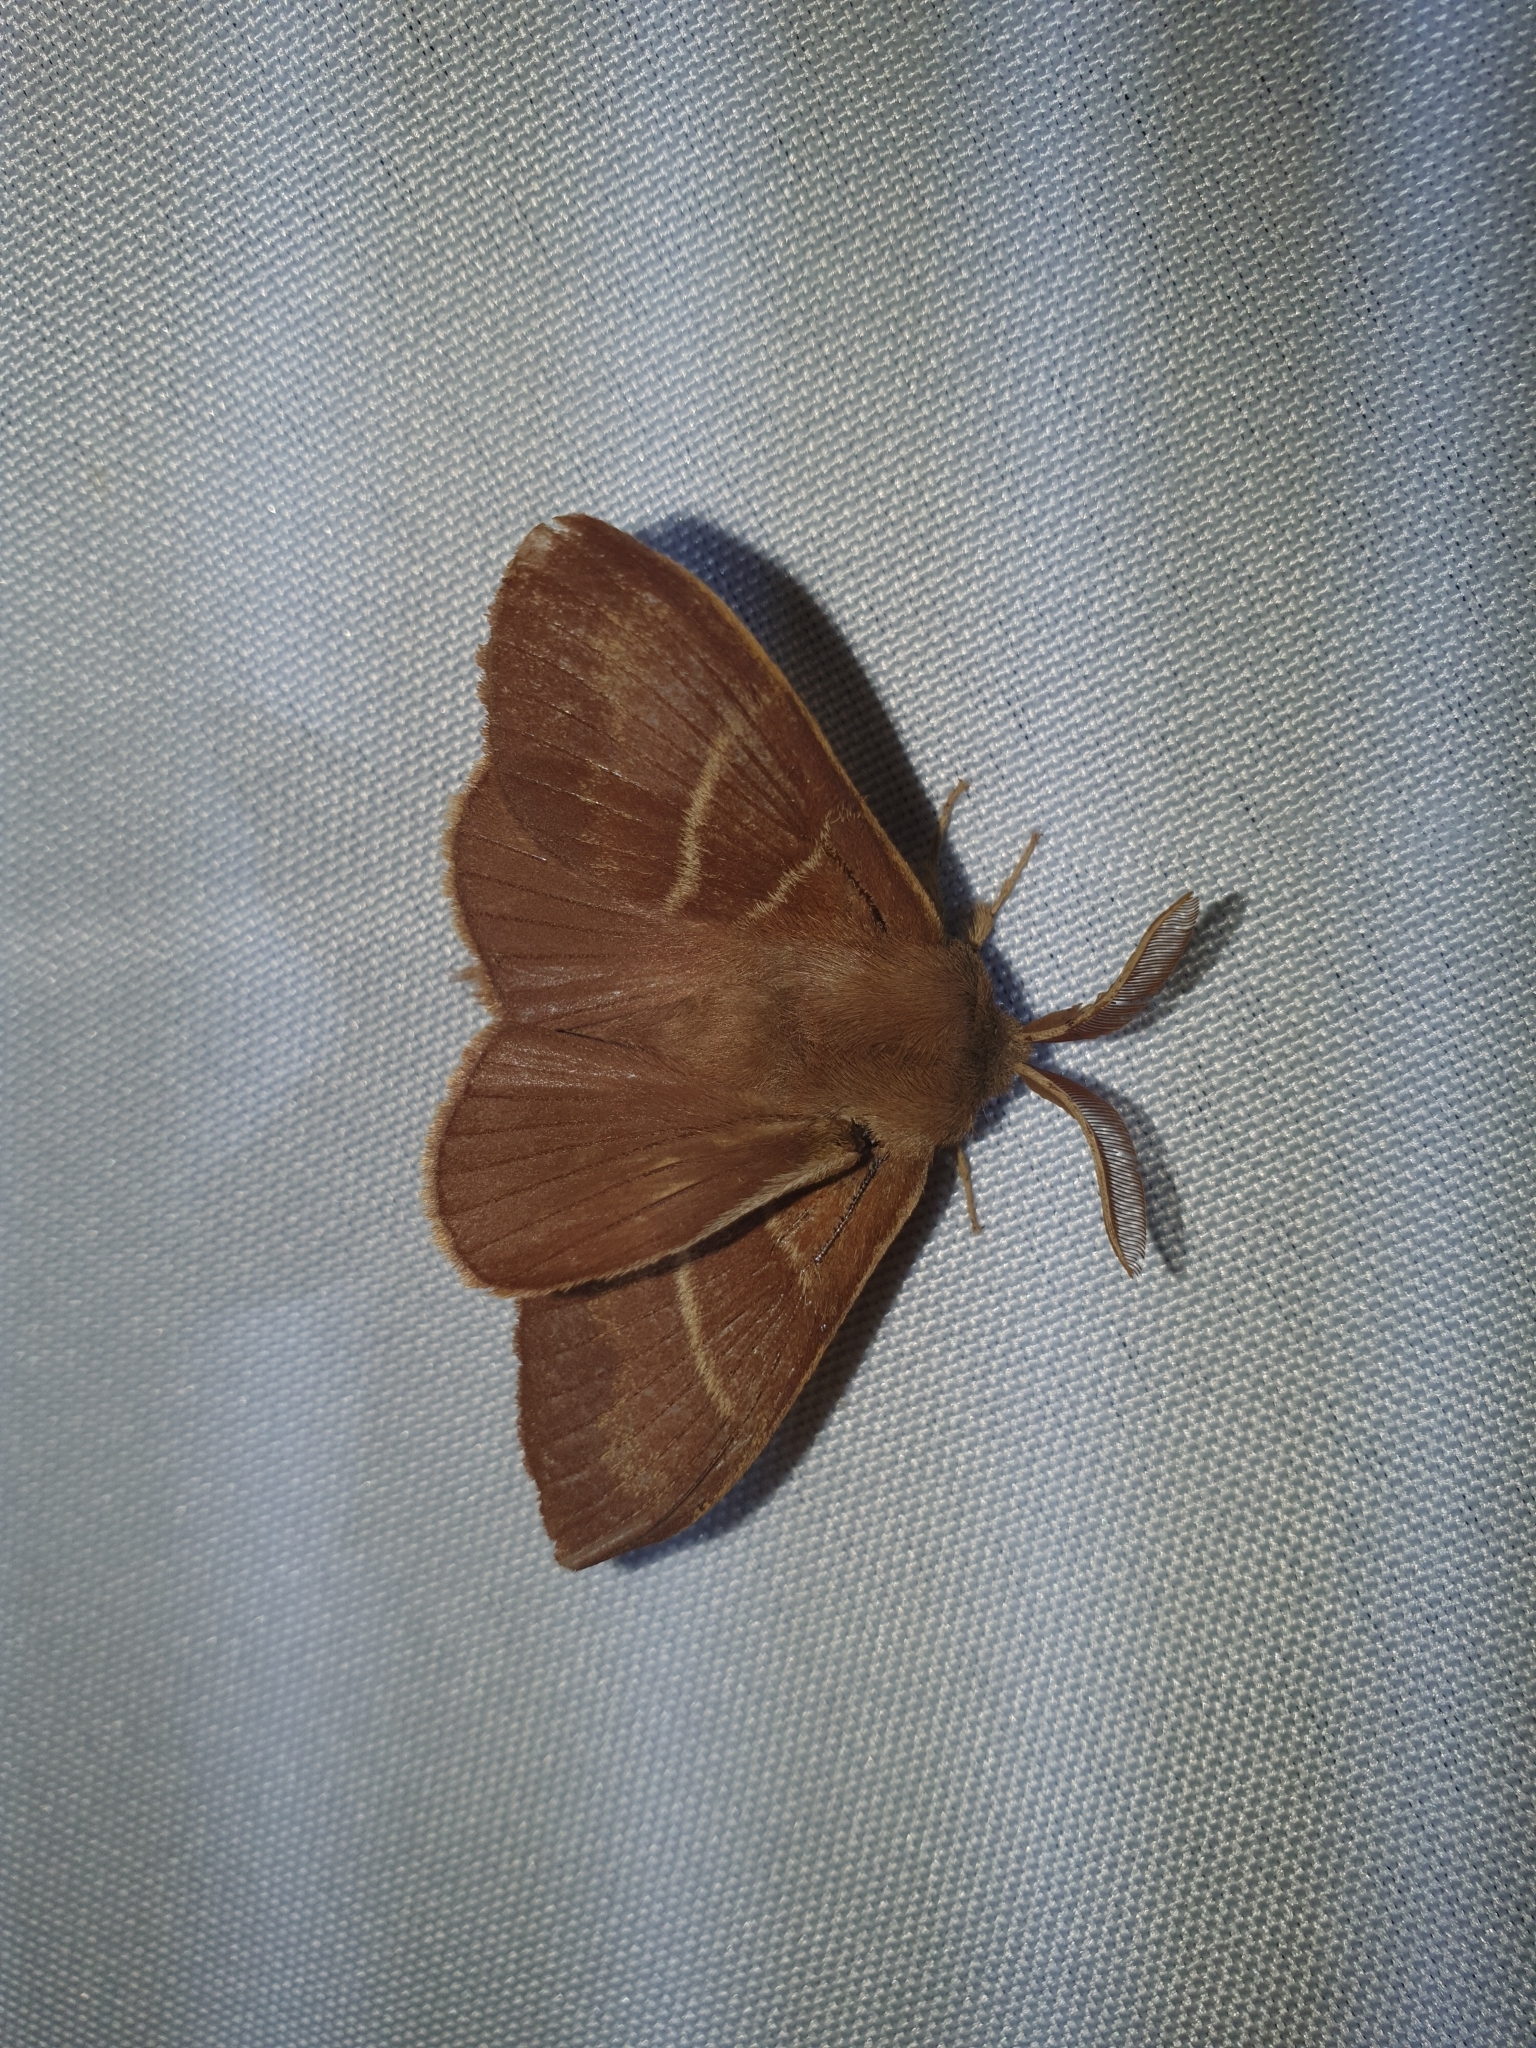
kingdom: Animalia
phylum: Arthropoda
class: Insecta
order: Lepidoptera
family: Lasiocampidae
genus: Macrothylacia
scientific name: Macrothylacia rubi
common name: Fox moth
